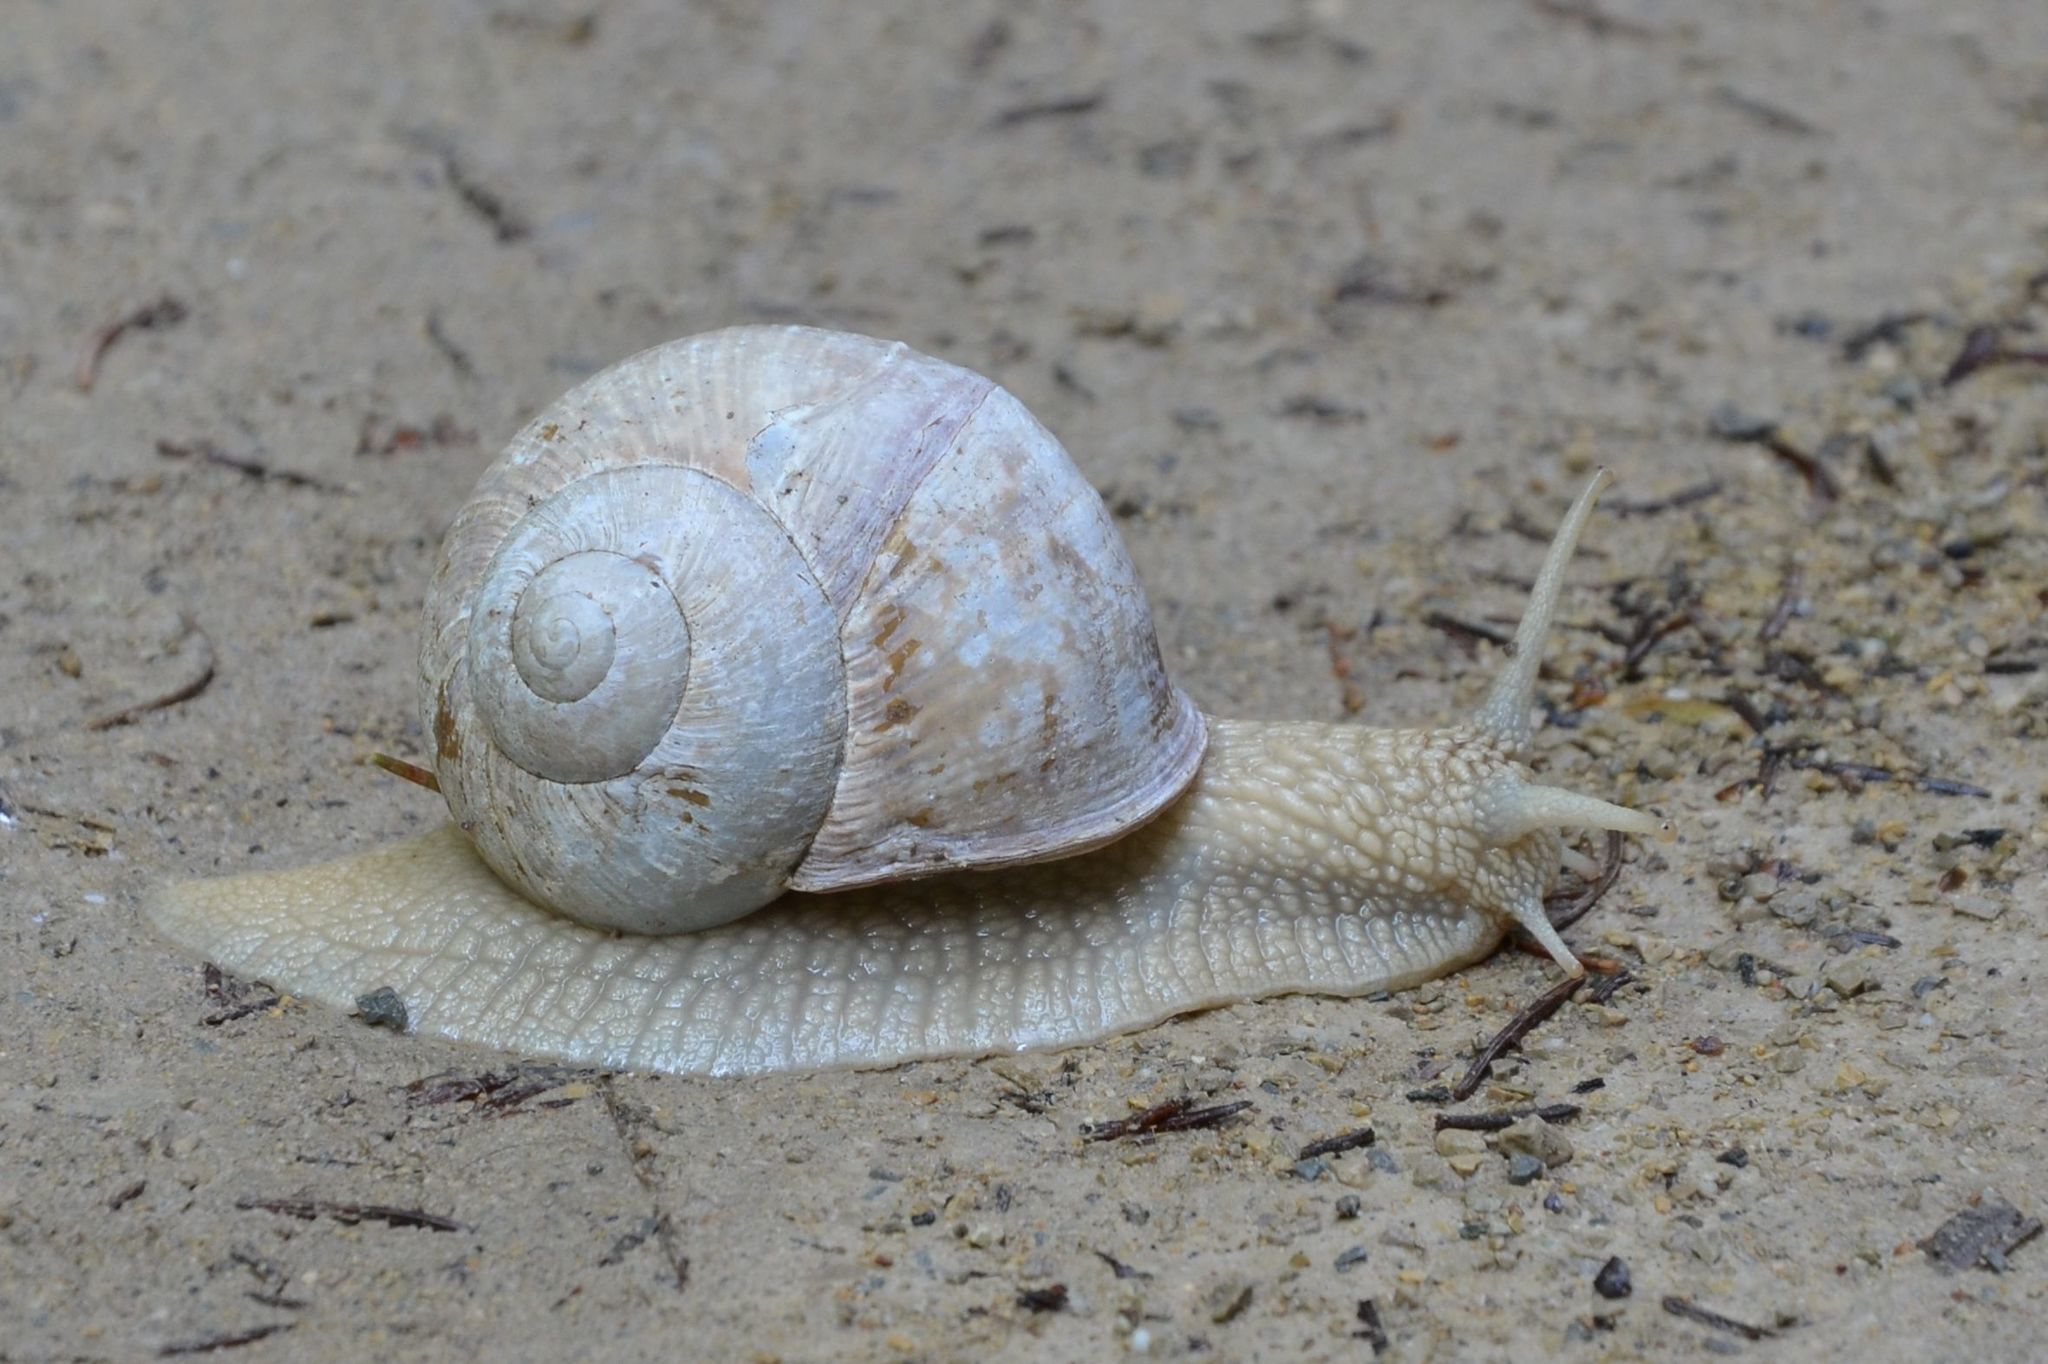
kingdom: Animalia
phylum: Mollusca
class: Gastropoda
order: Stylommatophora
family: Helicidae
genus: Helix
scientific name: Helix pomatia
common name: Roman snail
